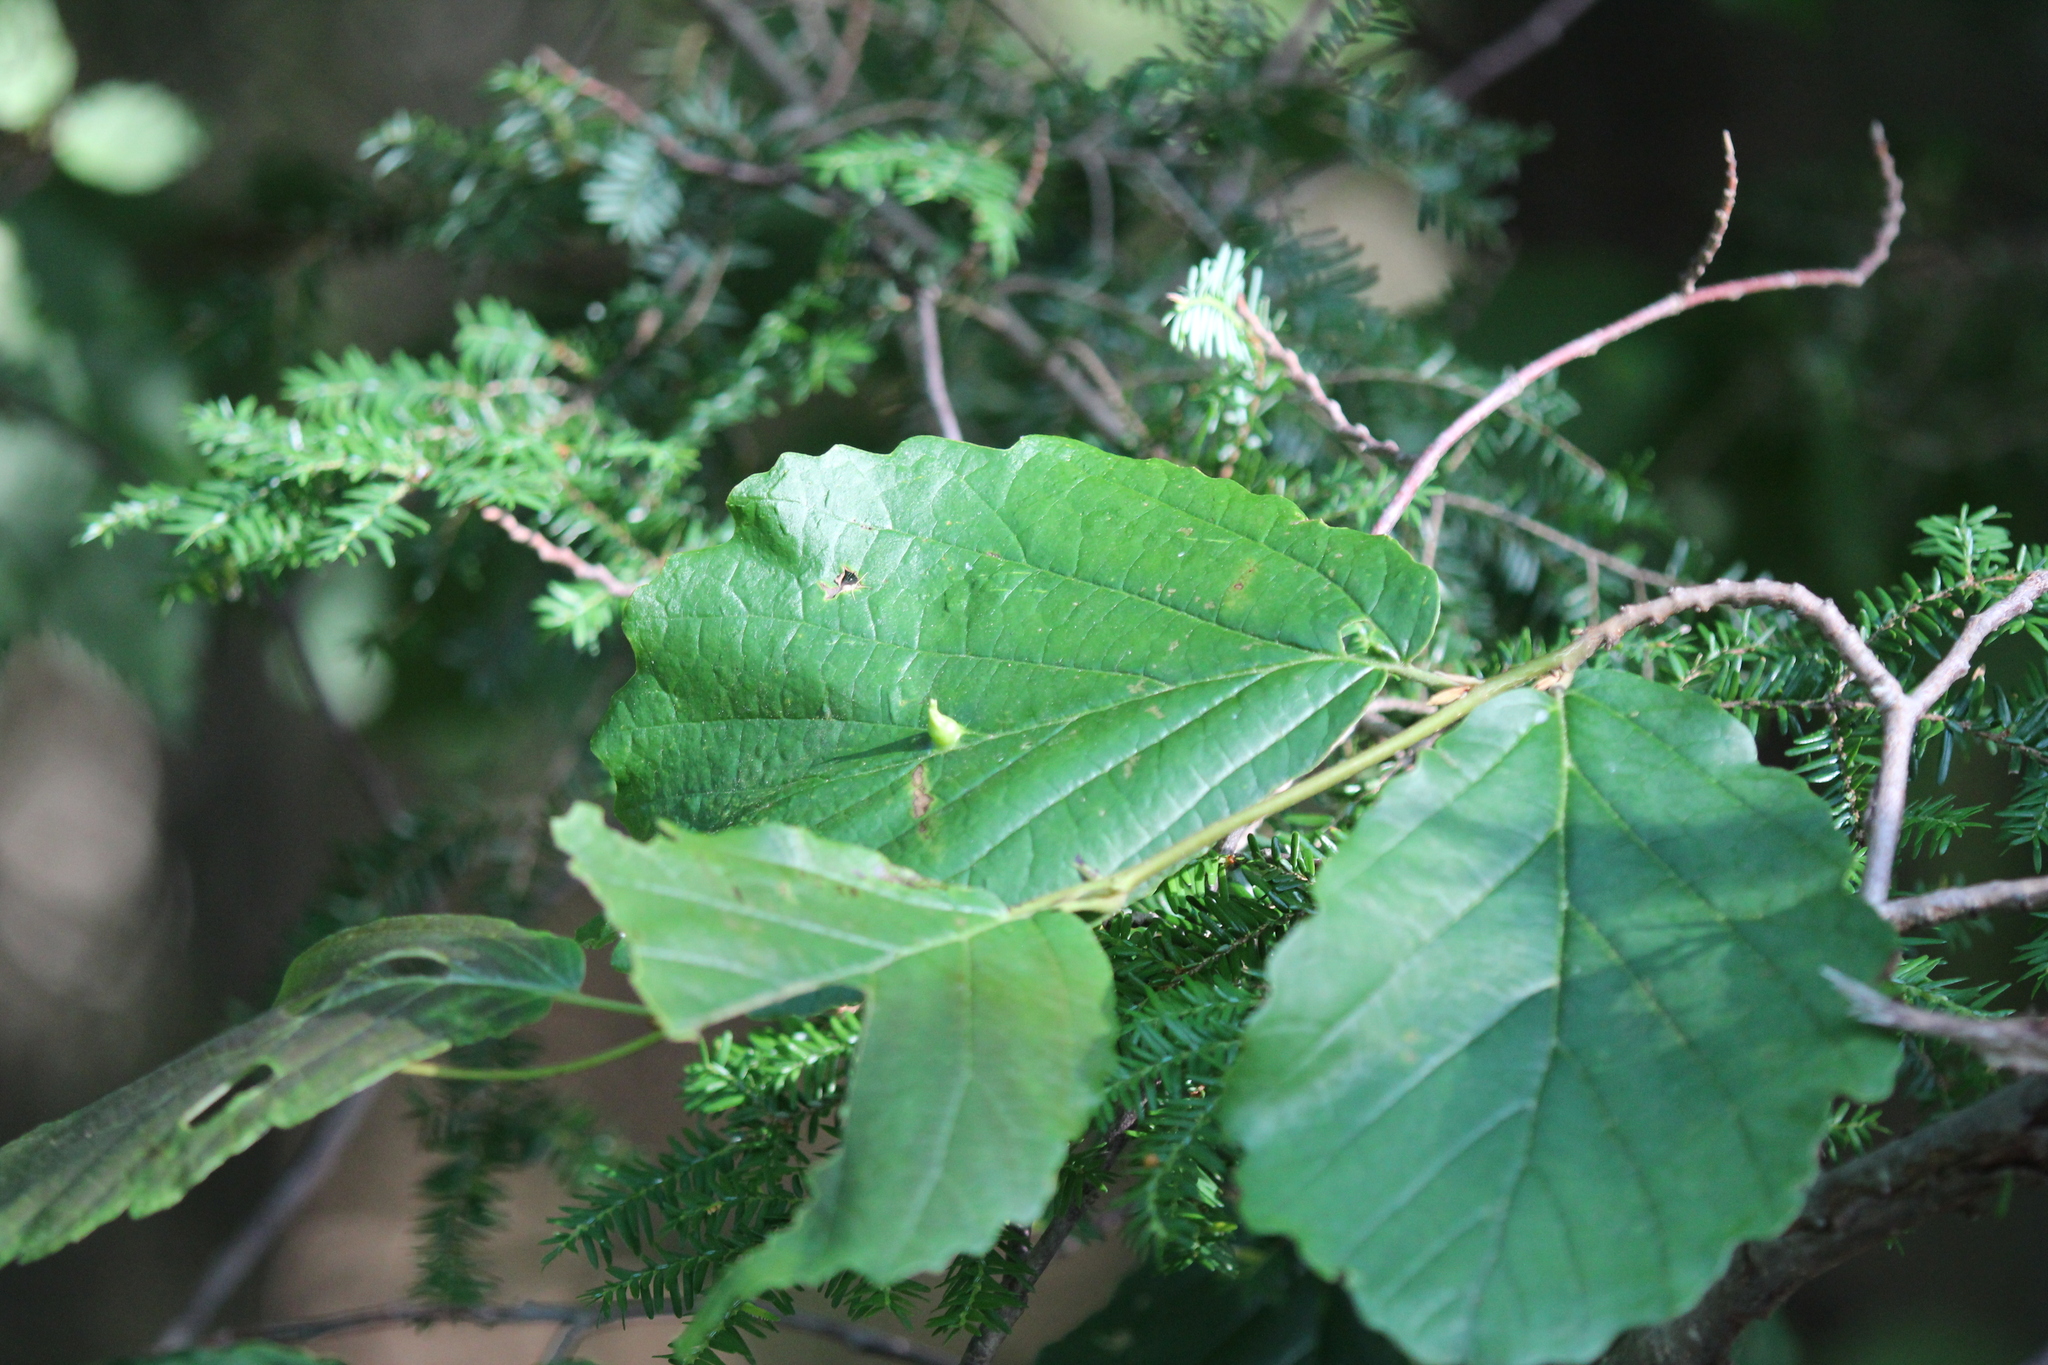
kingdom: Plantae
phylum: Tracheophyta
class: Magnoliopsida
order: Saxifragales
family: Hamamelidaceae
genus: Hamamelis
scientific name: Hamamelis virginiana
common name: Witch-hazel
